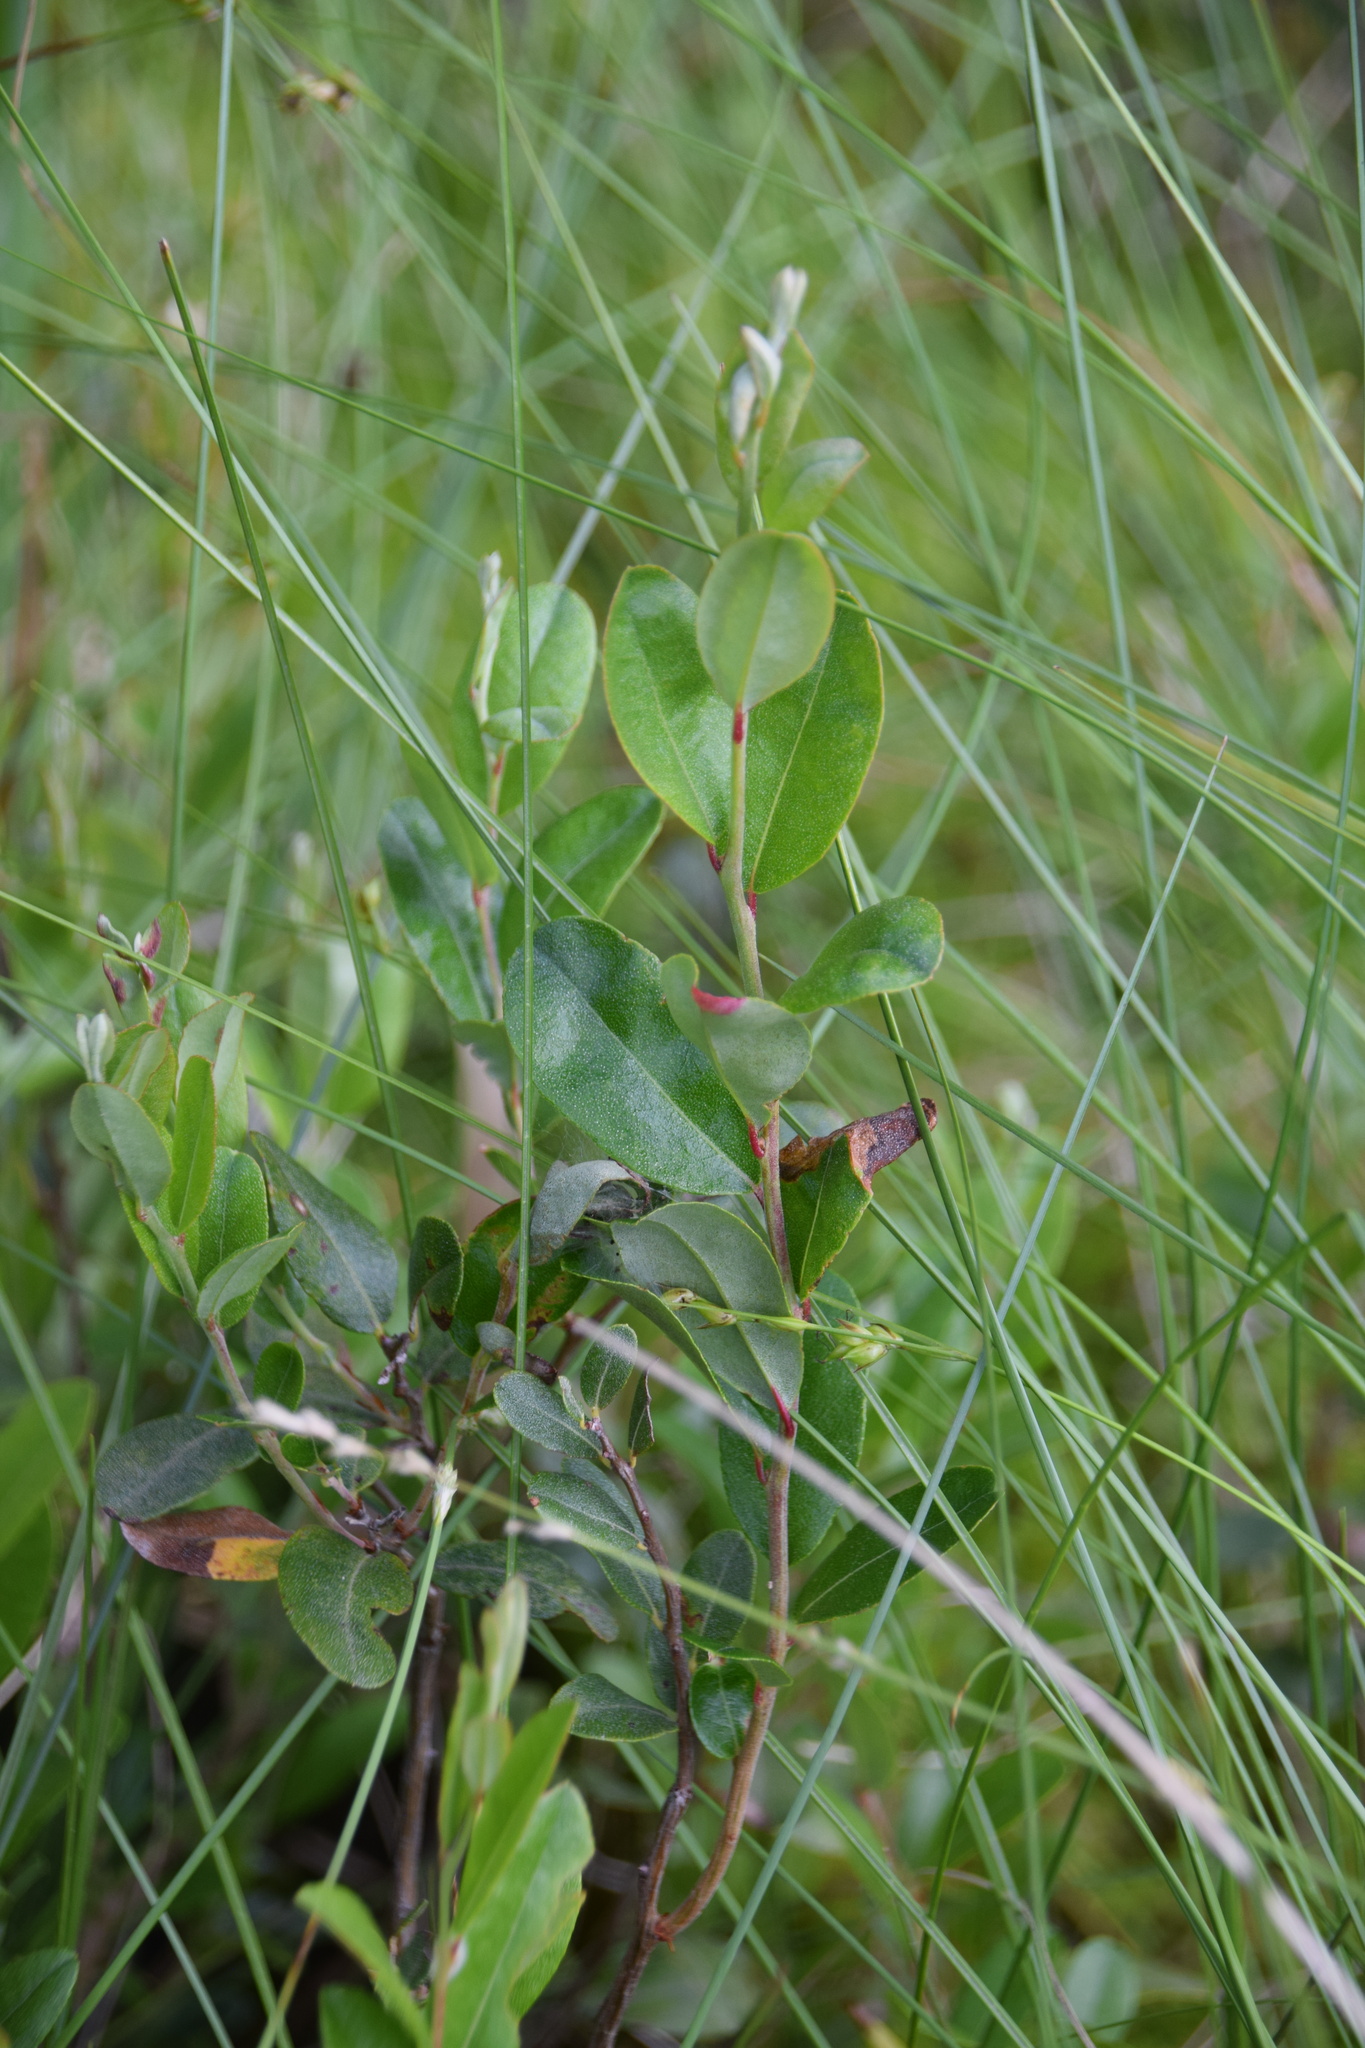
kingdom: Plantae
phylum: Tracheophyta
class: Magnoliopsida
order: Ericales
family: Ericaceae
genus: Chamaedaphne
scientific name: Chamaedaphne calyculata
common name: Leatherleaf
